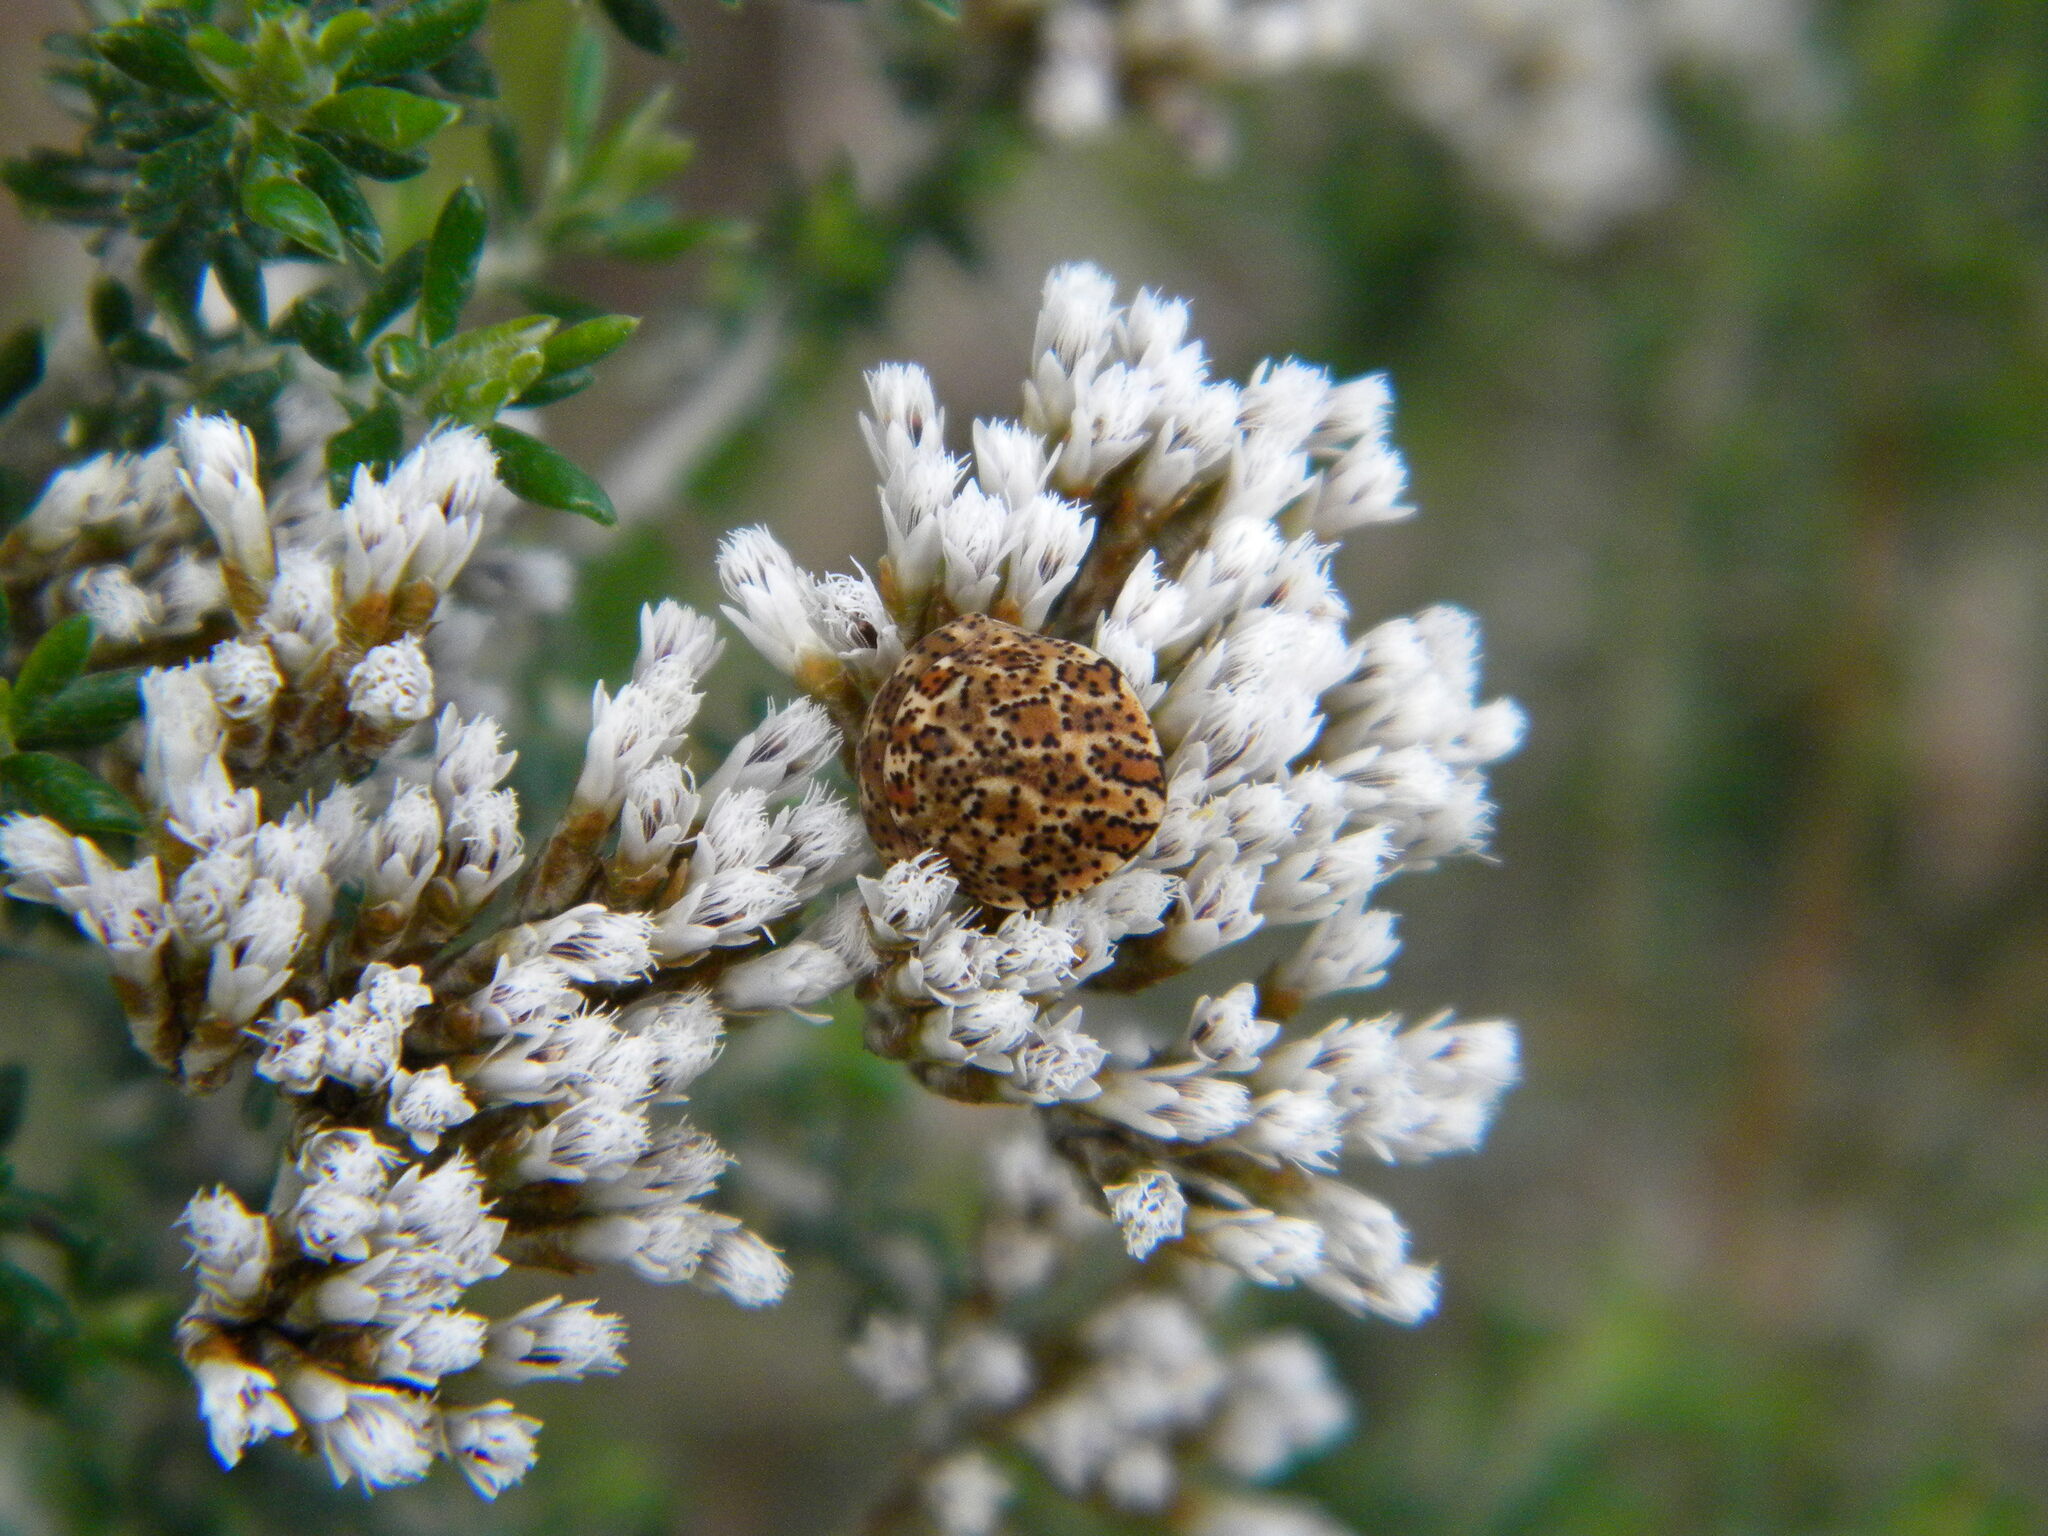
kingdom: Animalia
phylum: Arthropoda
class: Insecta
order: Hemiptera
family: Scutelleridae
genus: Sphaerocoris
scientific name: Sphaerocoris
